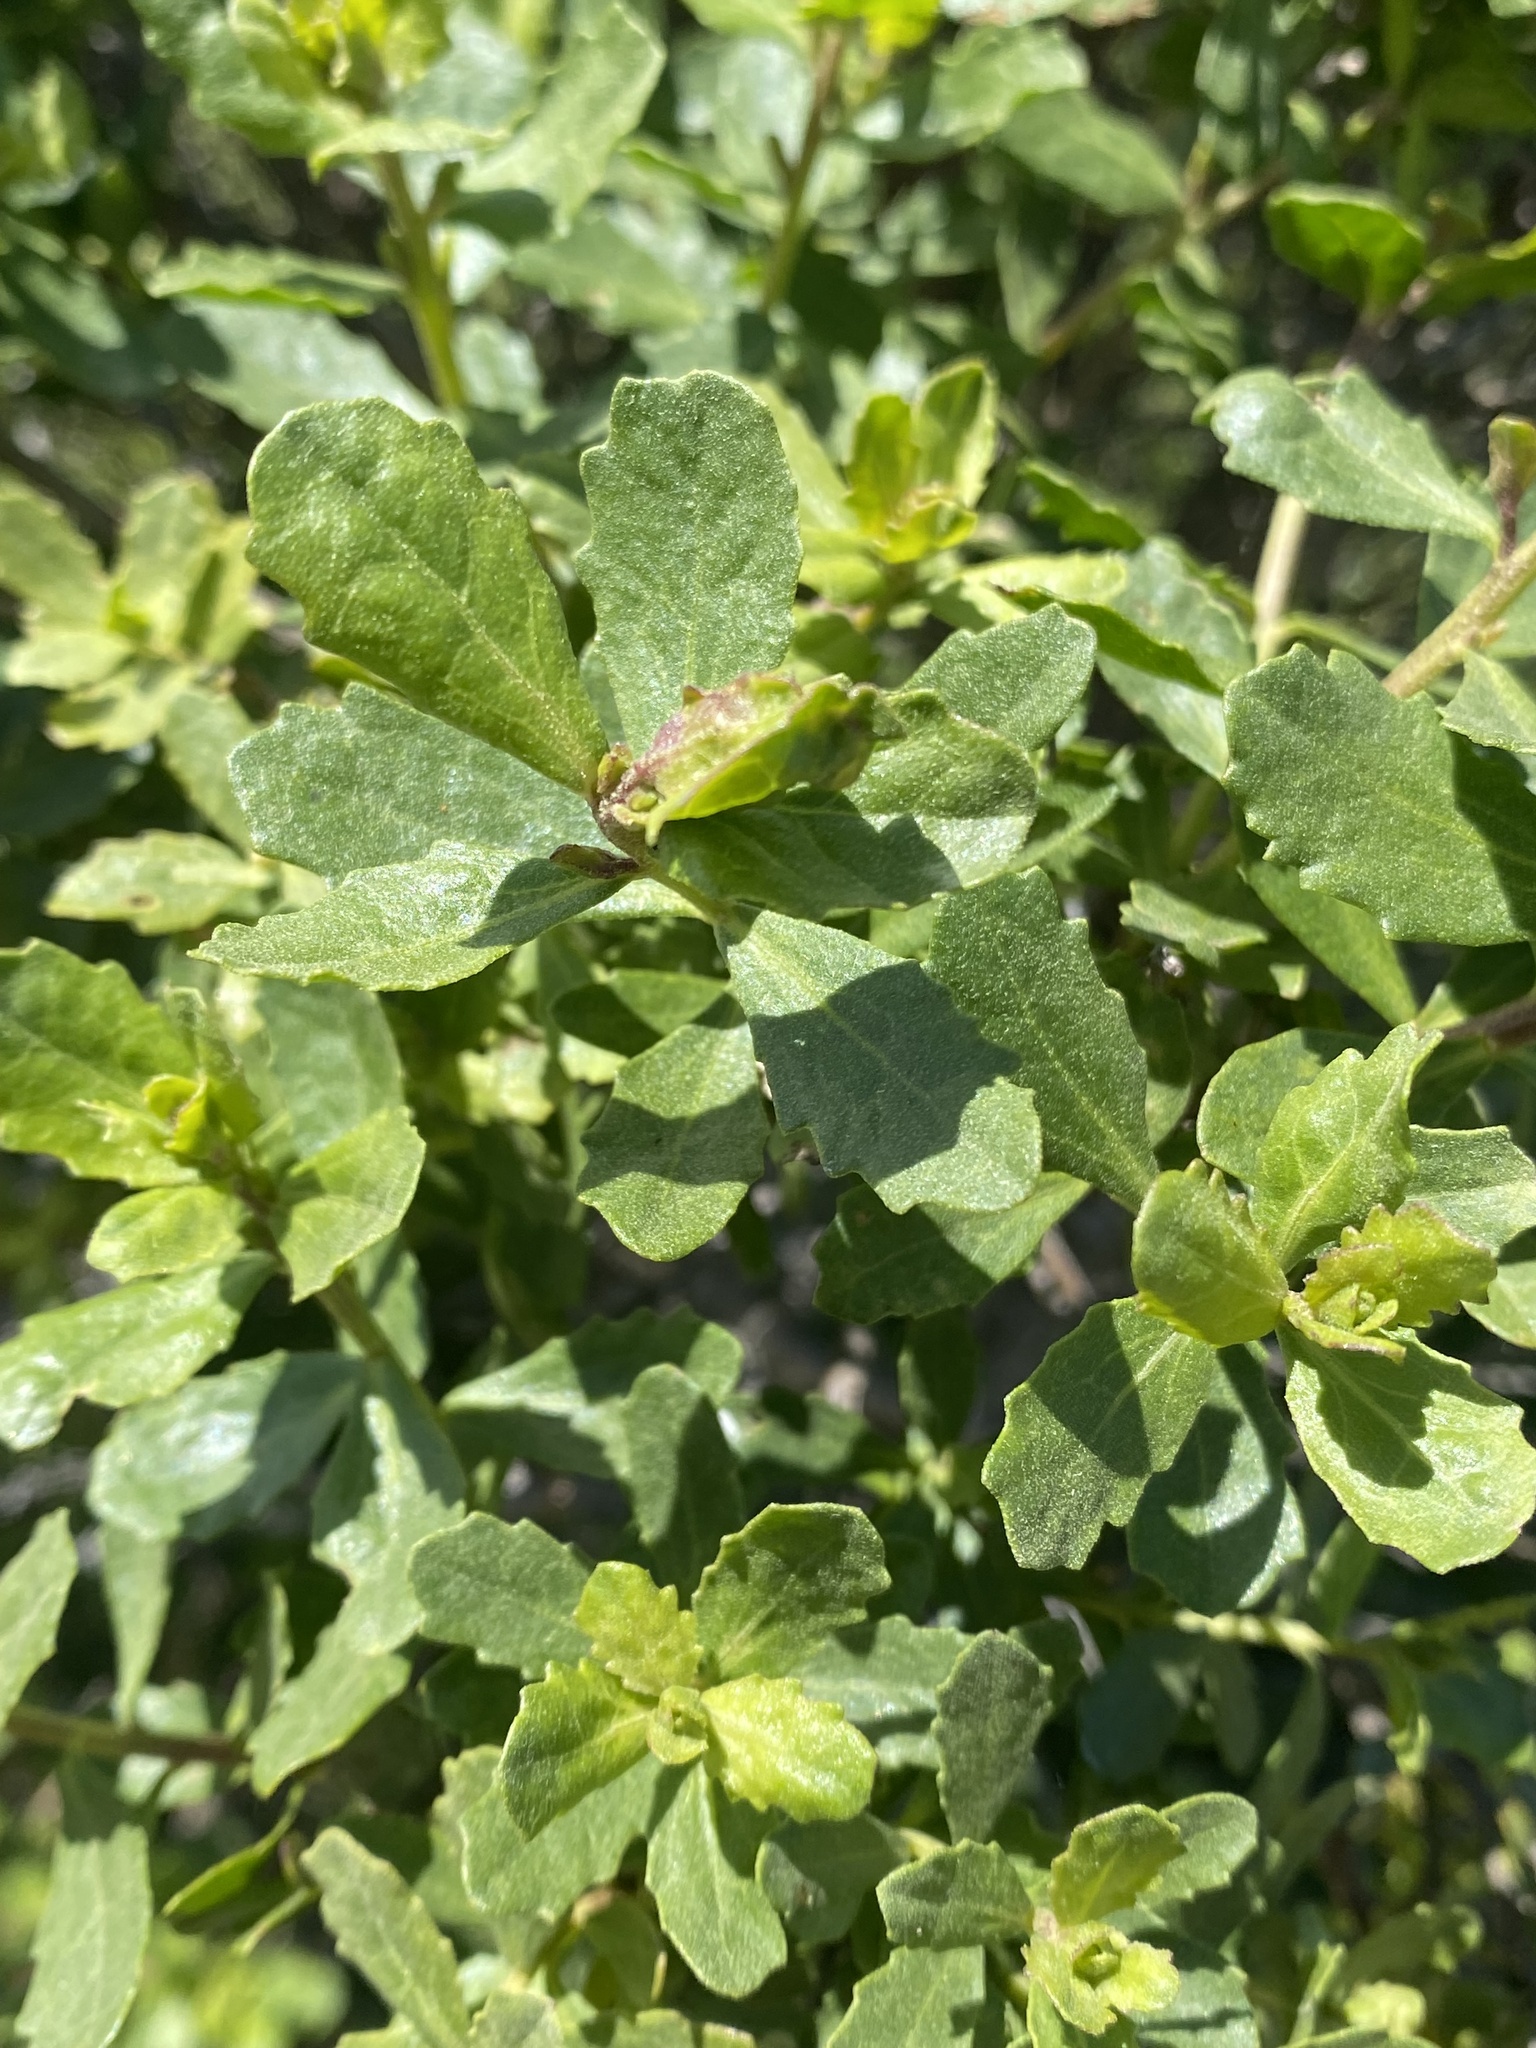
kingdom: Plantae
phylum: Tracheophyta
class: Magnoliopsida
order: Asterales
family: Asteraceae
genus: Baccharis
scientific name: Baccharis pilularis
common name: Coyotebrush
